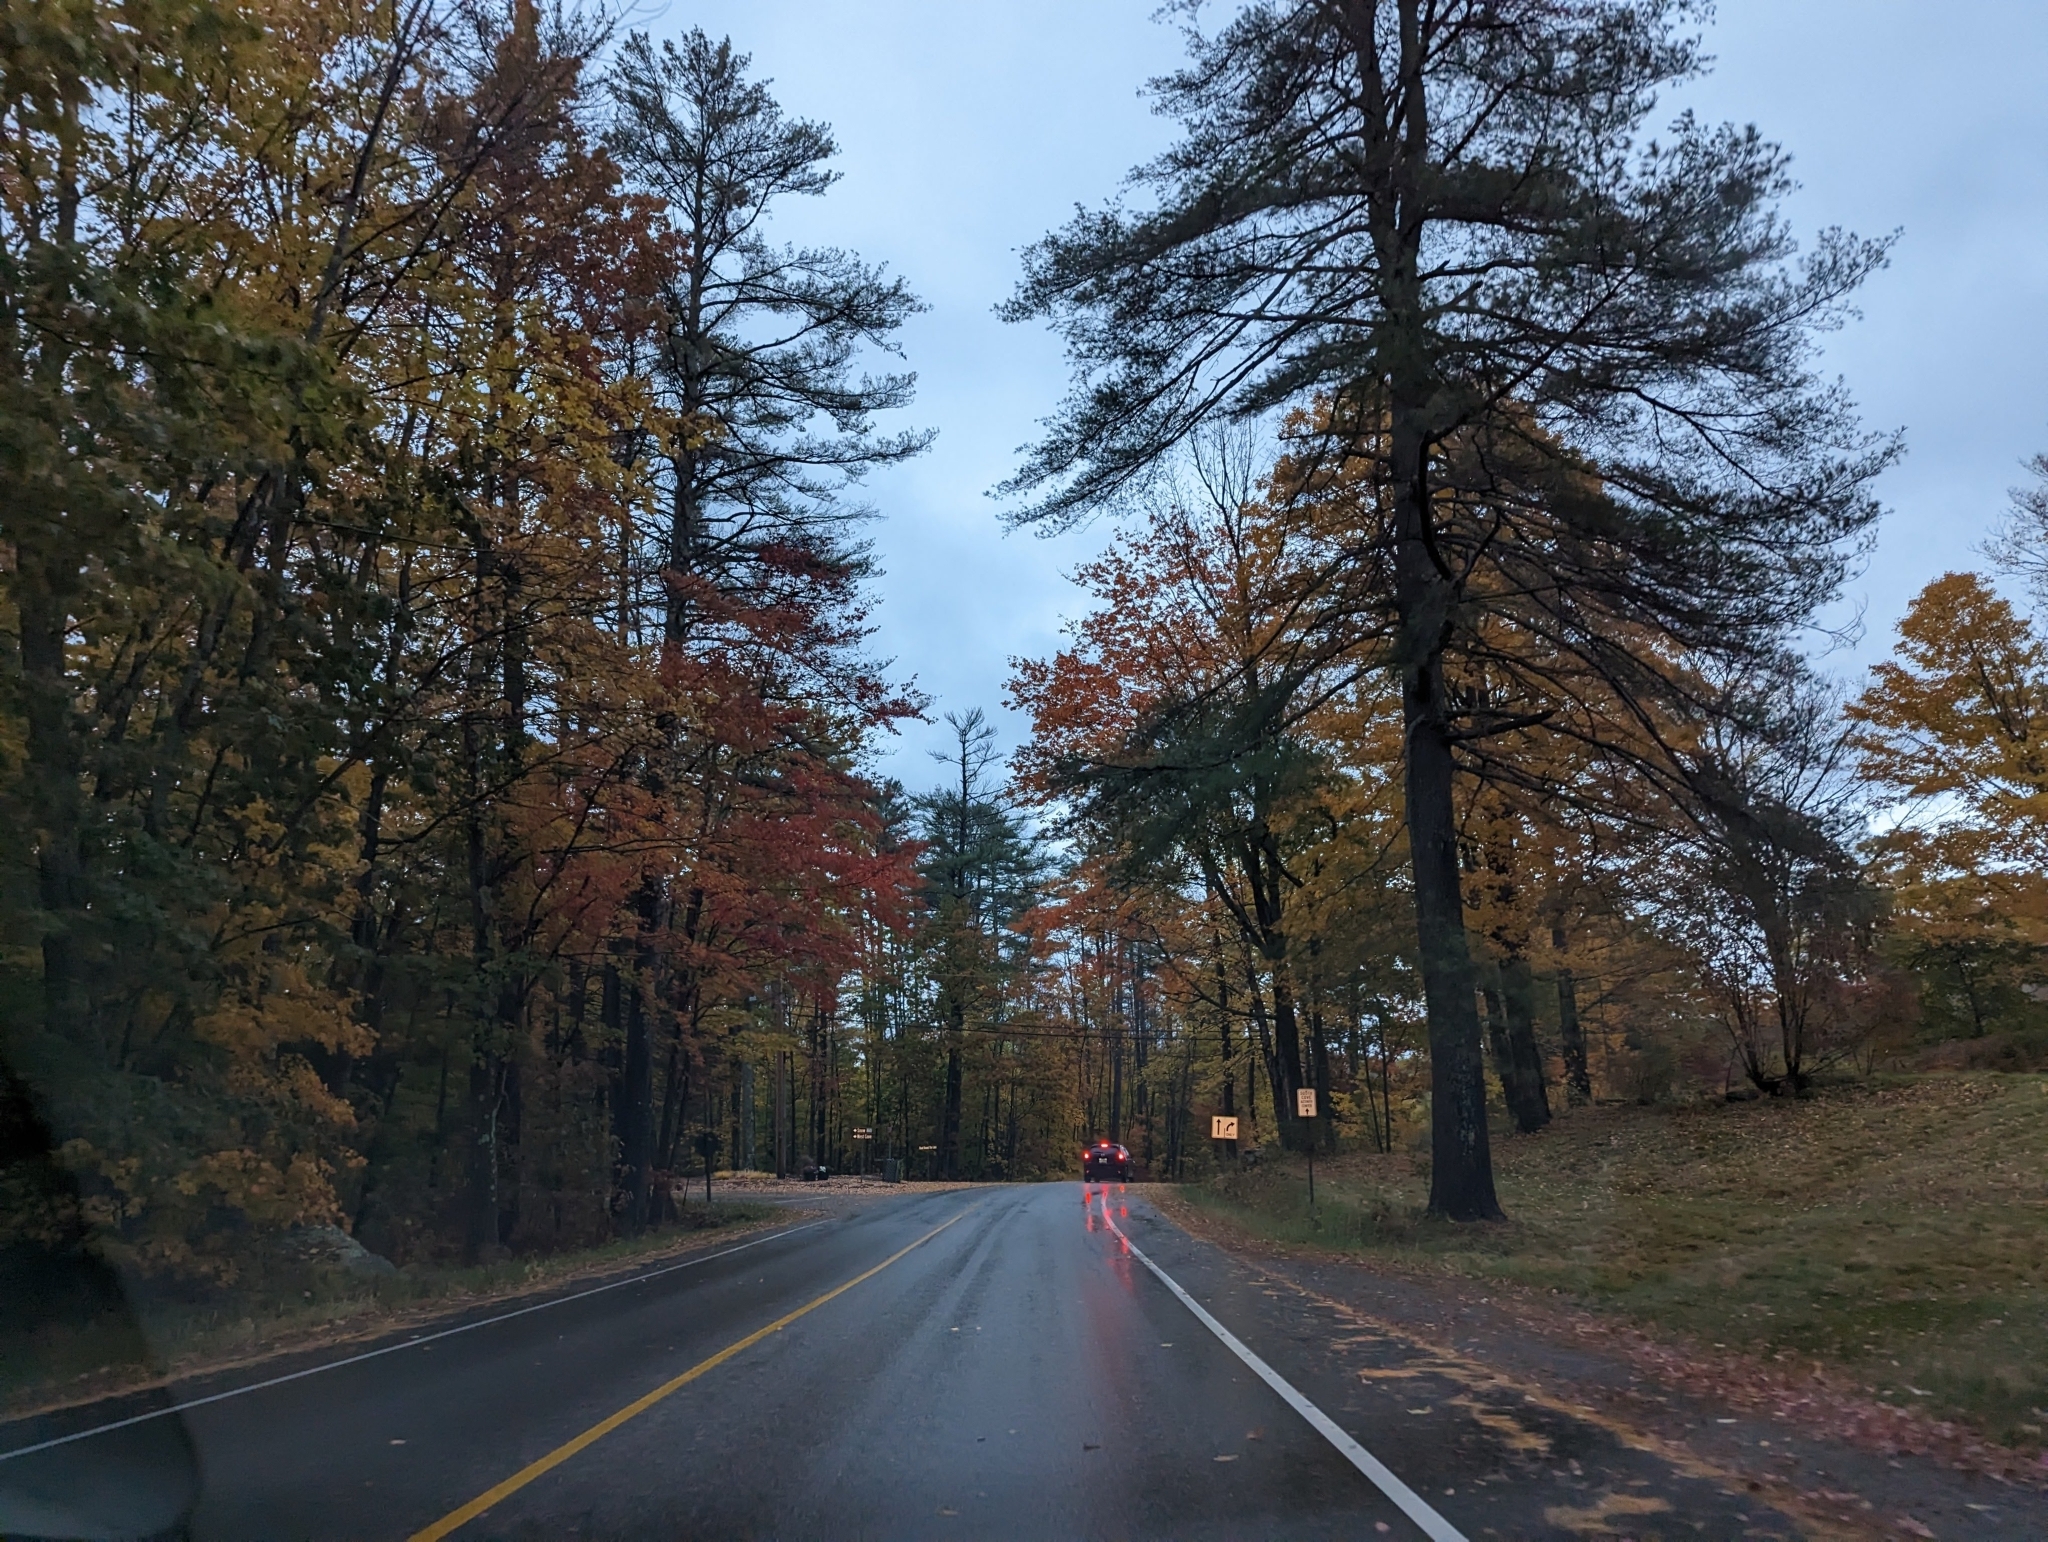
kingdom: Plantae
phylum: Tracheophyta
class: Pinopsida
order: Pinales
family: Pinaceae
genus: Pinus
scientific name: Pinus strobus
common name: Weymouth pine
